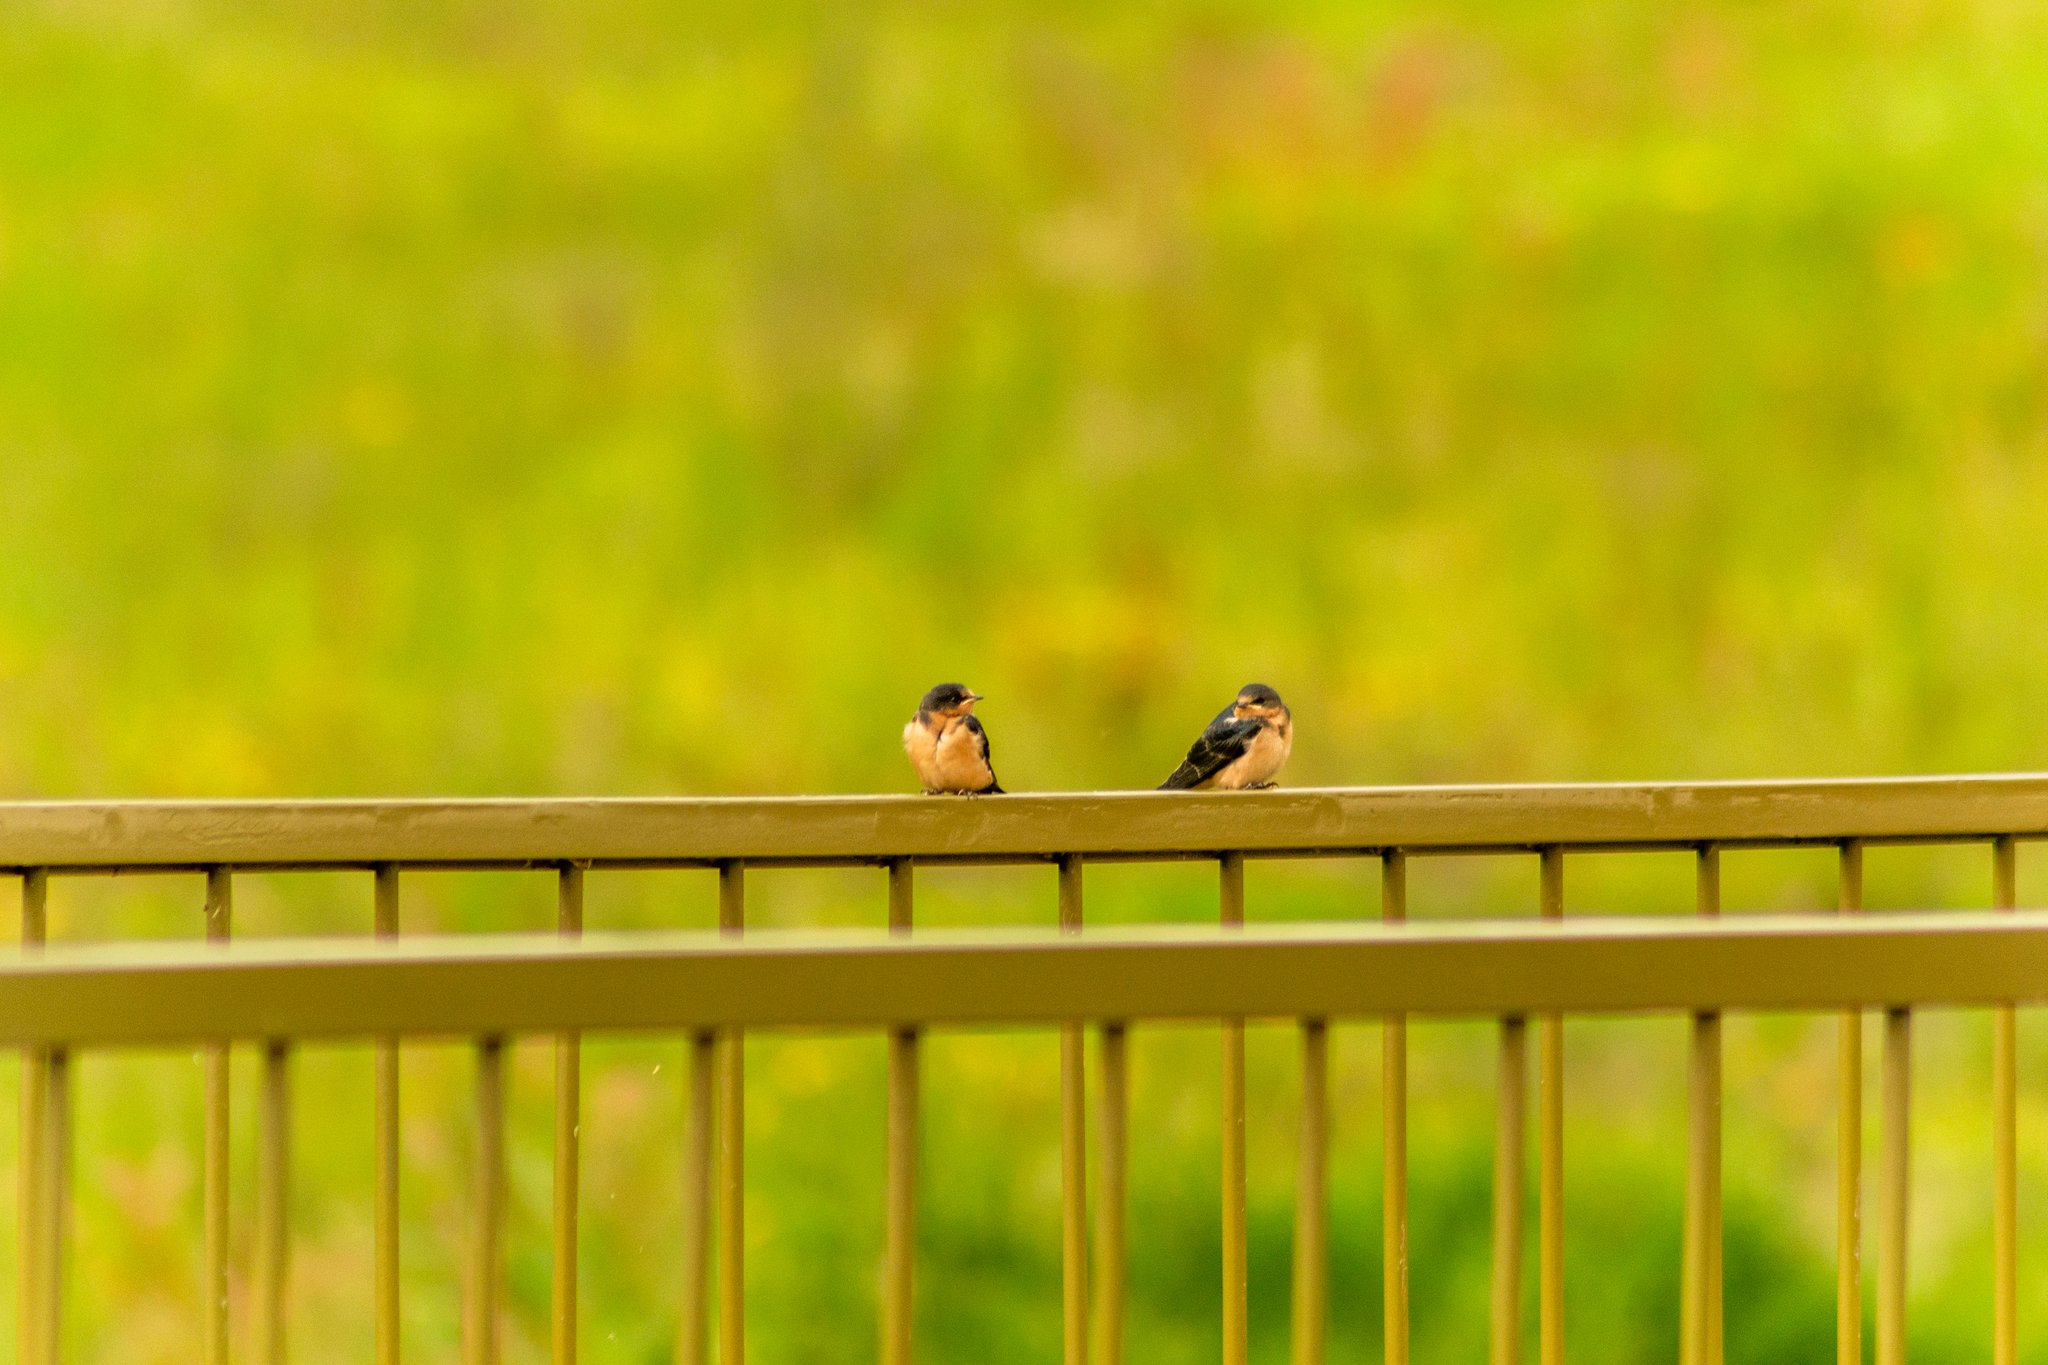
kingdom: Animalia
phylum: Chordata
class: Aves
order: Passeriformes
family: Hirundinidae
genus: Hirundo
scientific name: Hirundo rustica
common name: Barn swallow
